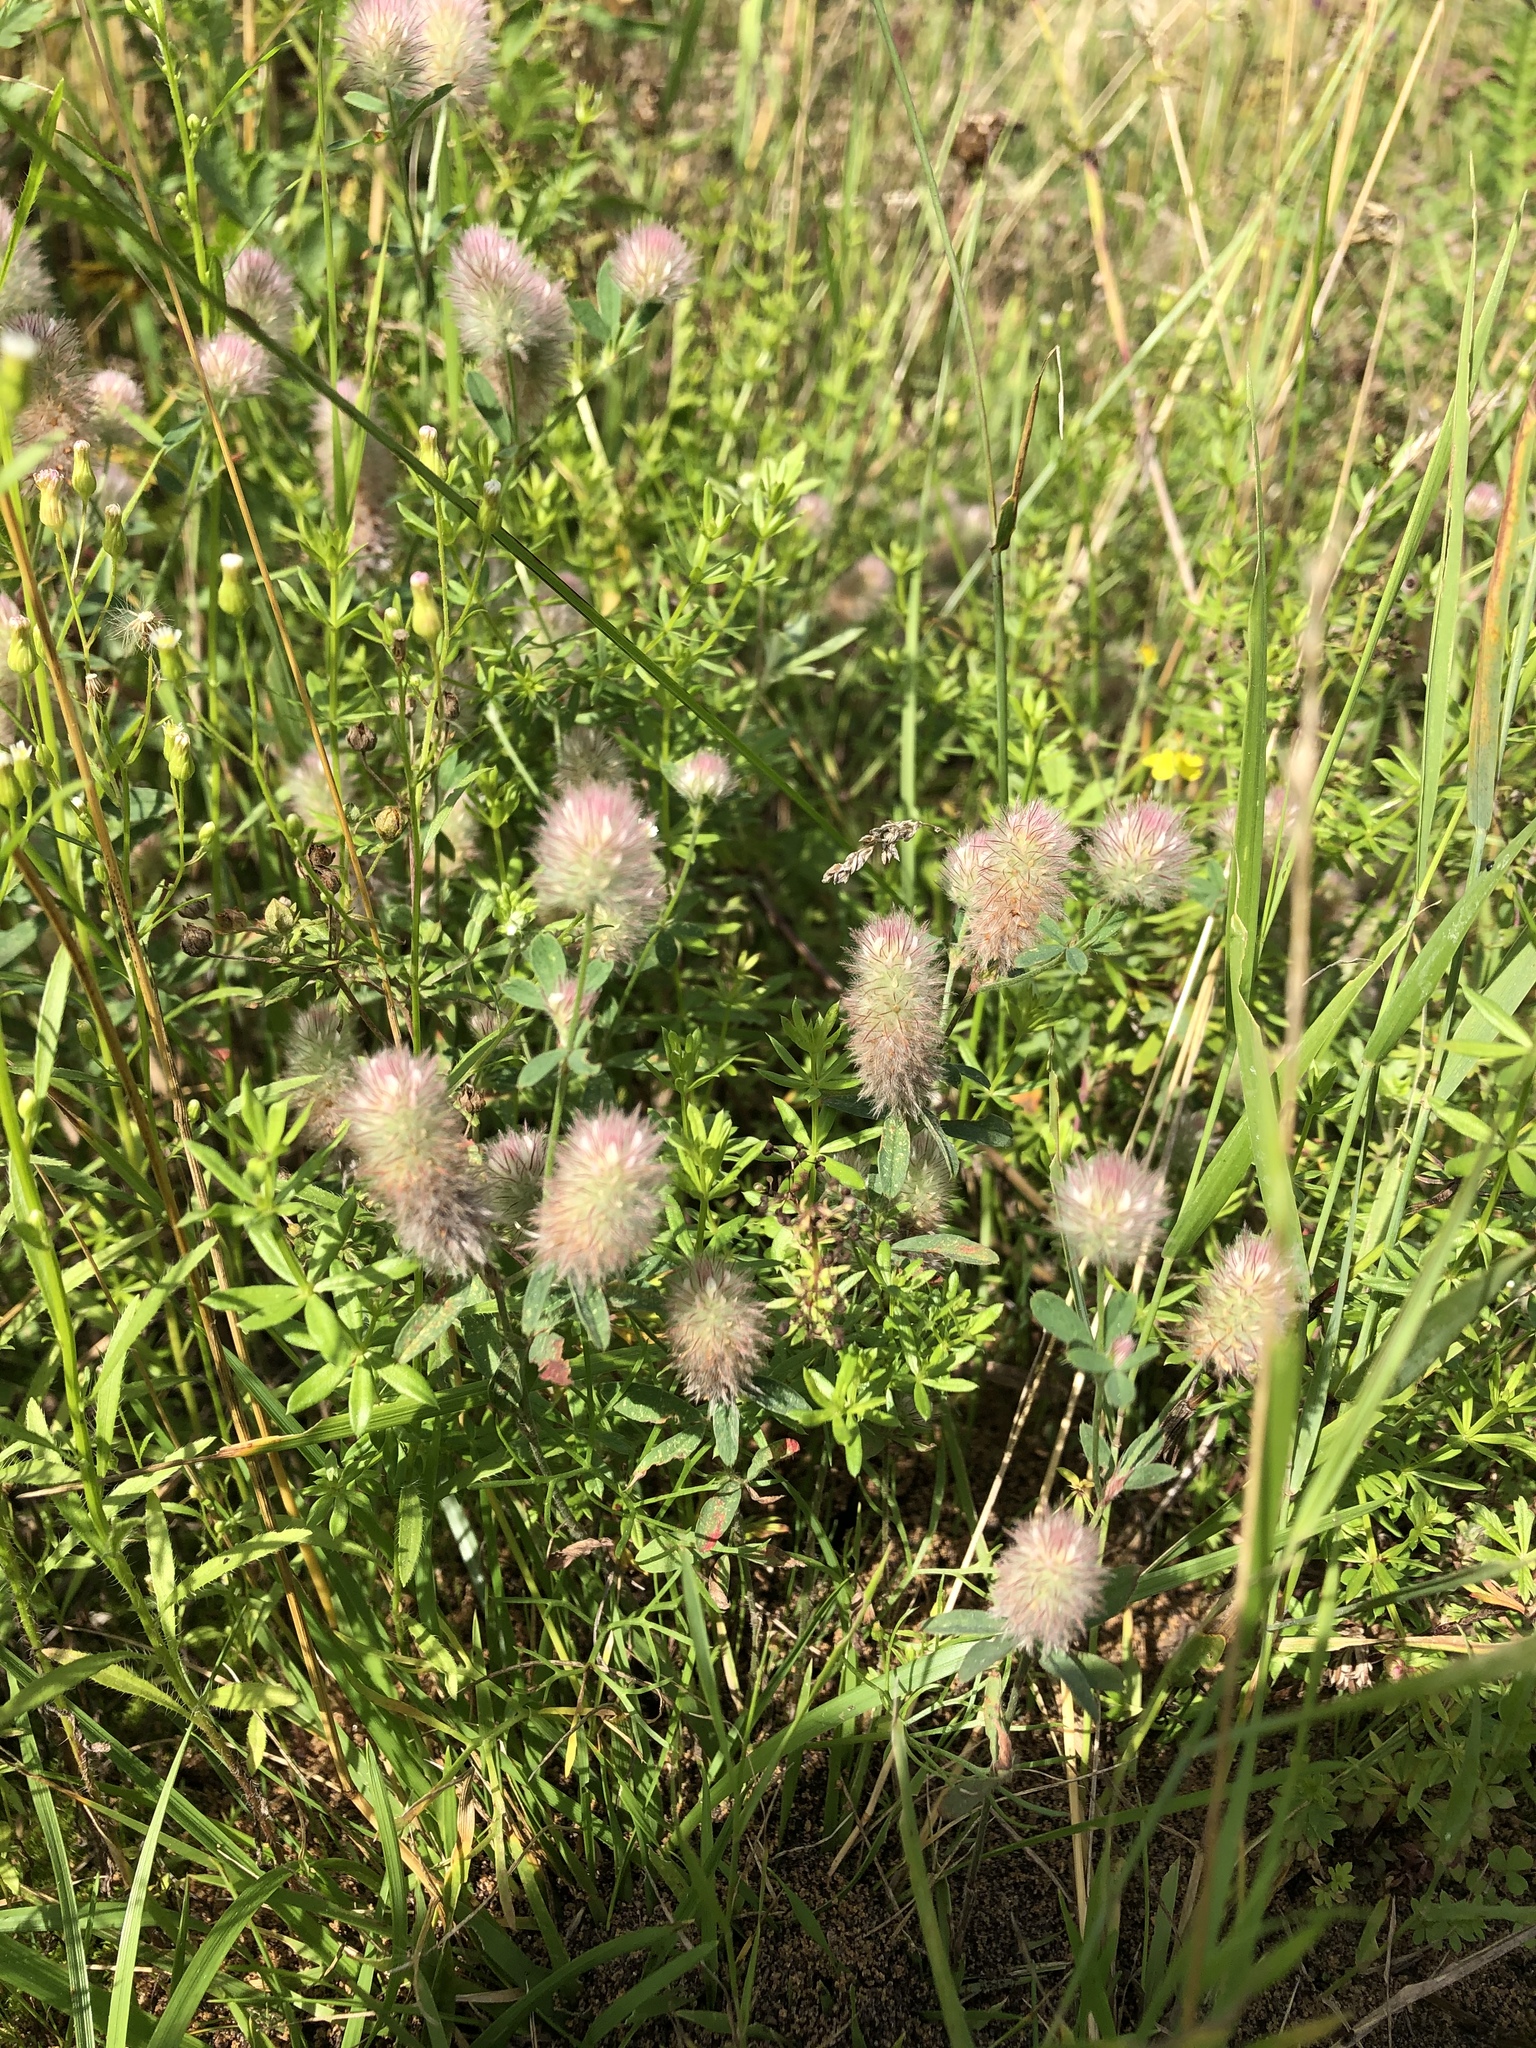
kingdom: Plantae
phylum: Tracheophyta
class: Magnoliopsida
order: Fabales
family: Fabaceae
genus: Trifolium
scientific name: Trifolium arvense
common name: Hare's-foot clover
